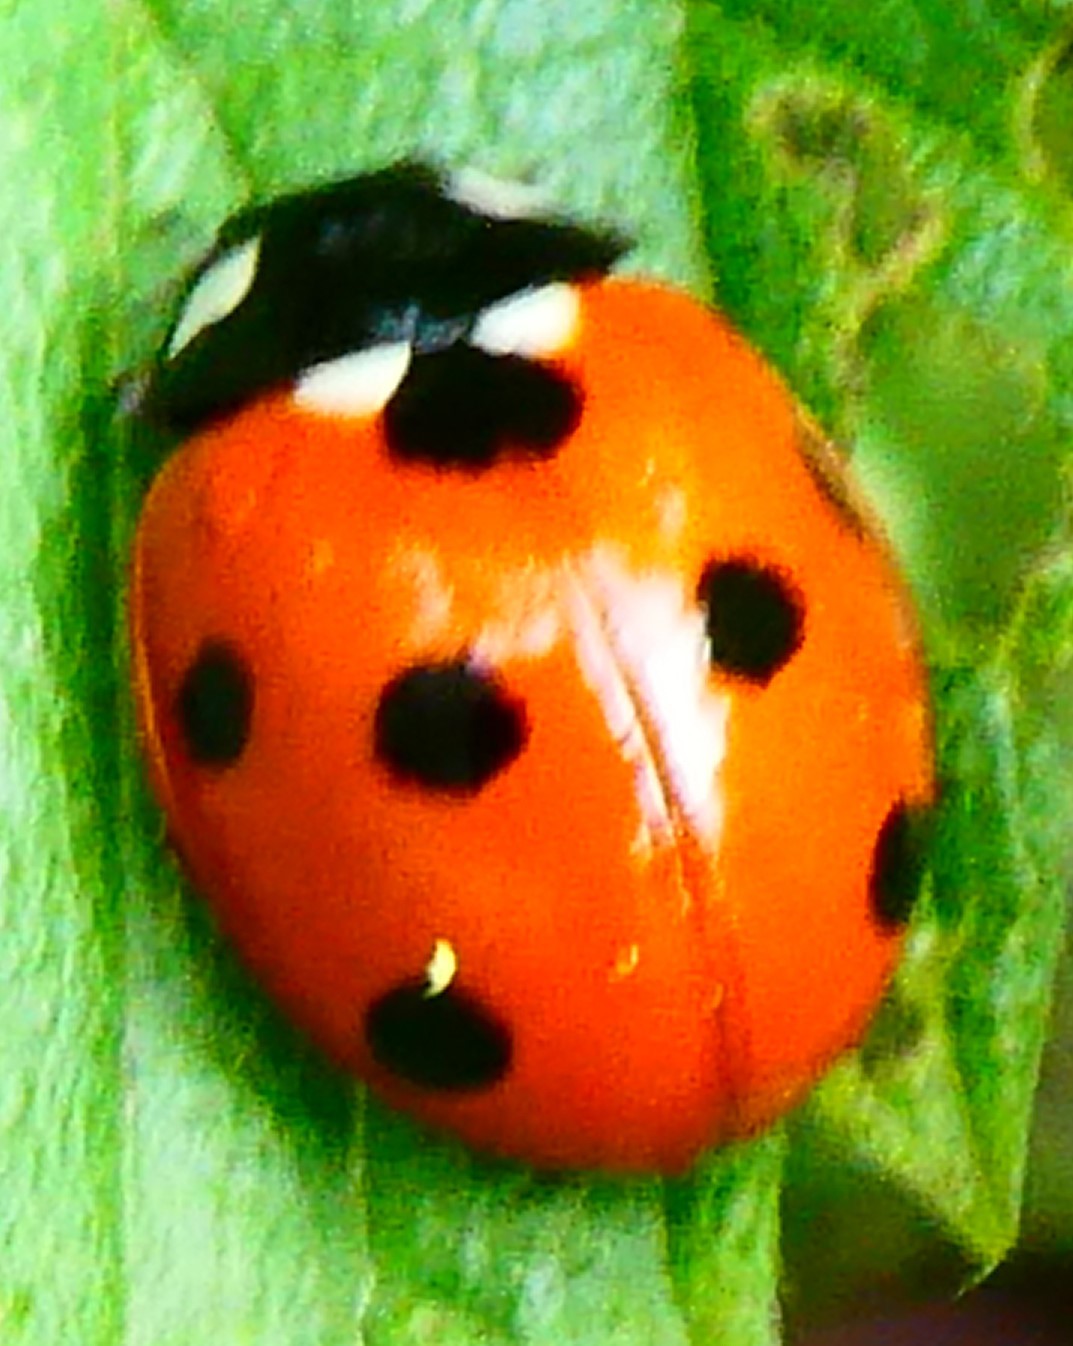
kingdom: Animalia
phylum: Arthropoda
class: Insecta
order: Coleoptera
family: Coccinellidae
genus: Coccinella
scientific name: Coccinella septempunctata
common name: Sevenspotted lady beetle
